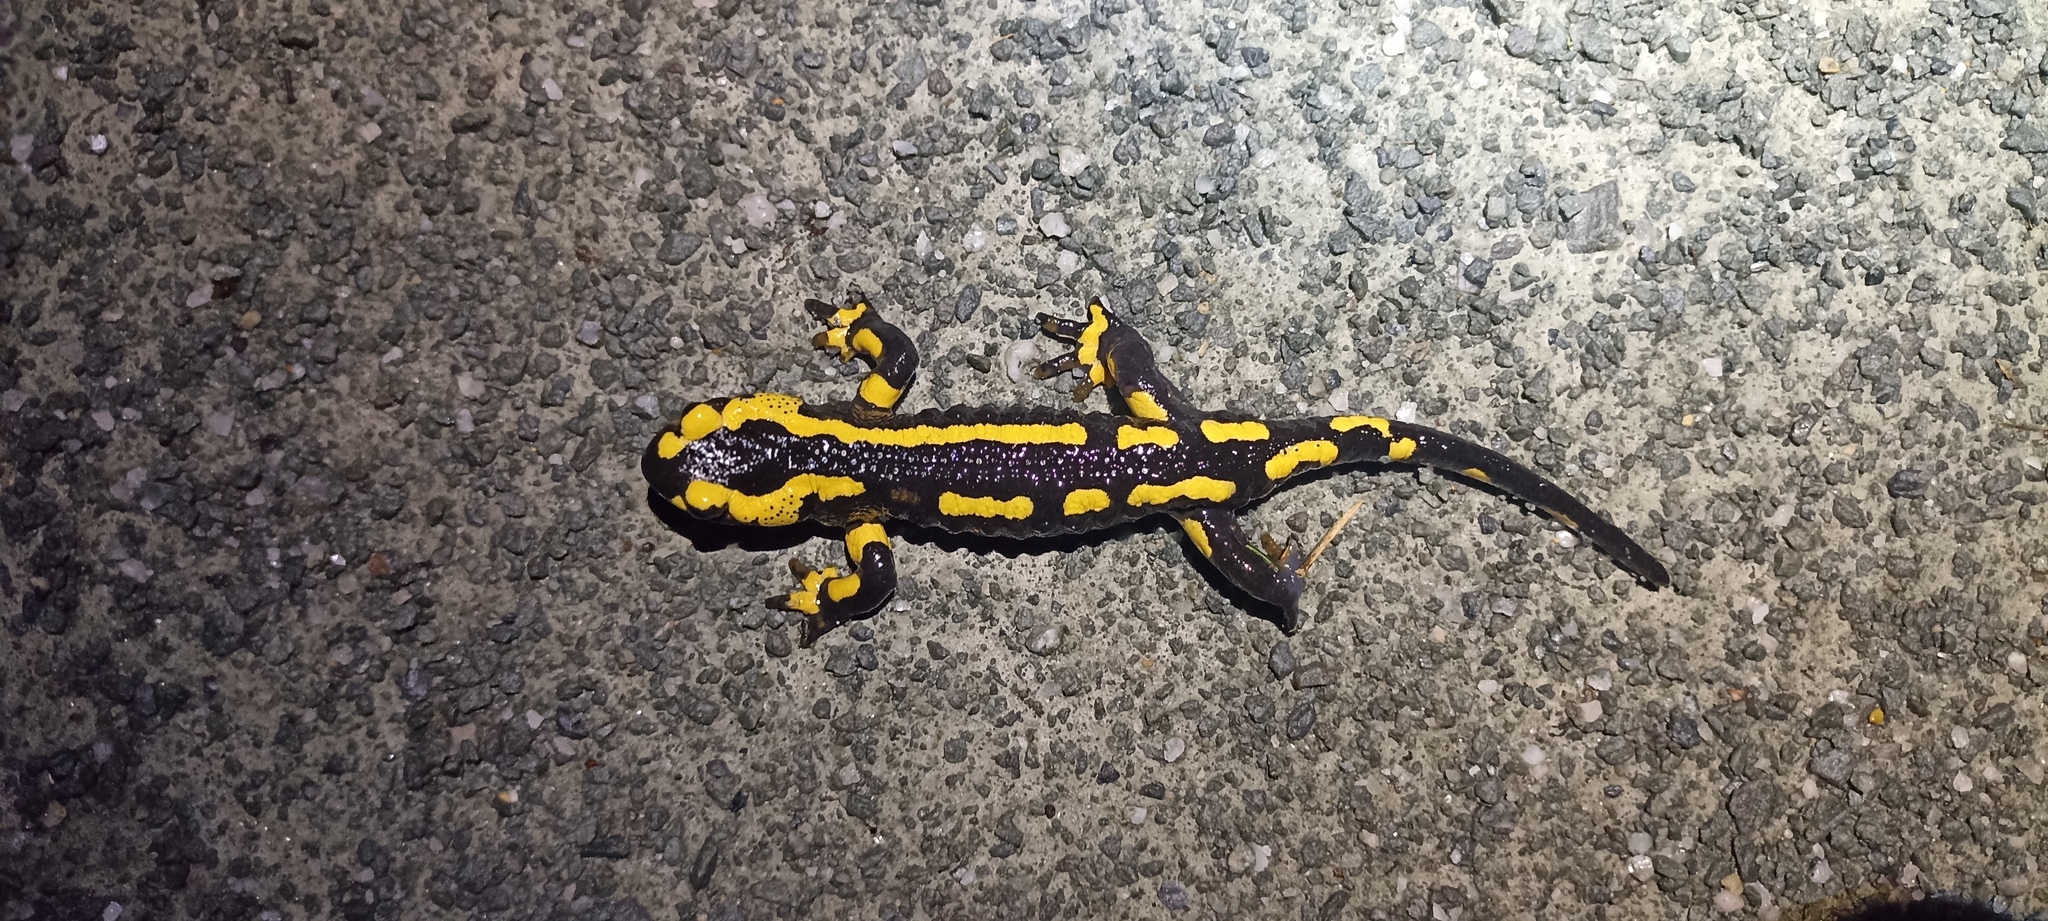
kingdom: Animalia
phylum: Chordata
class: Amphibia
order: Caudata
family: Salamandridae
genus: Salamandra
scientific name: Salamandra salamandra
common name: Fire salamander
